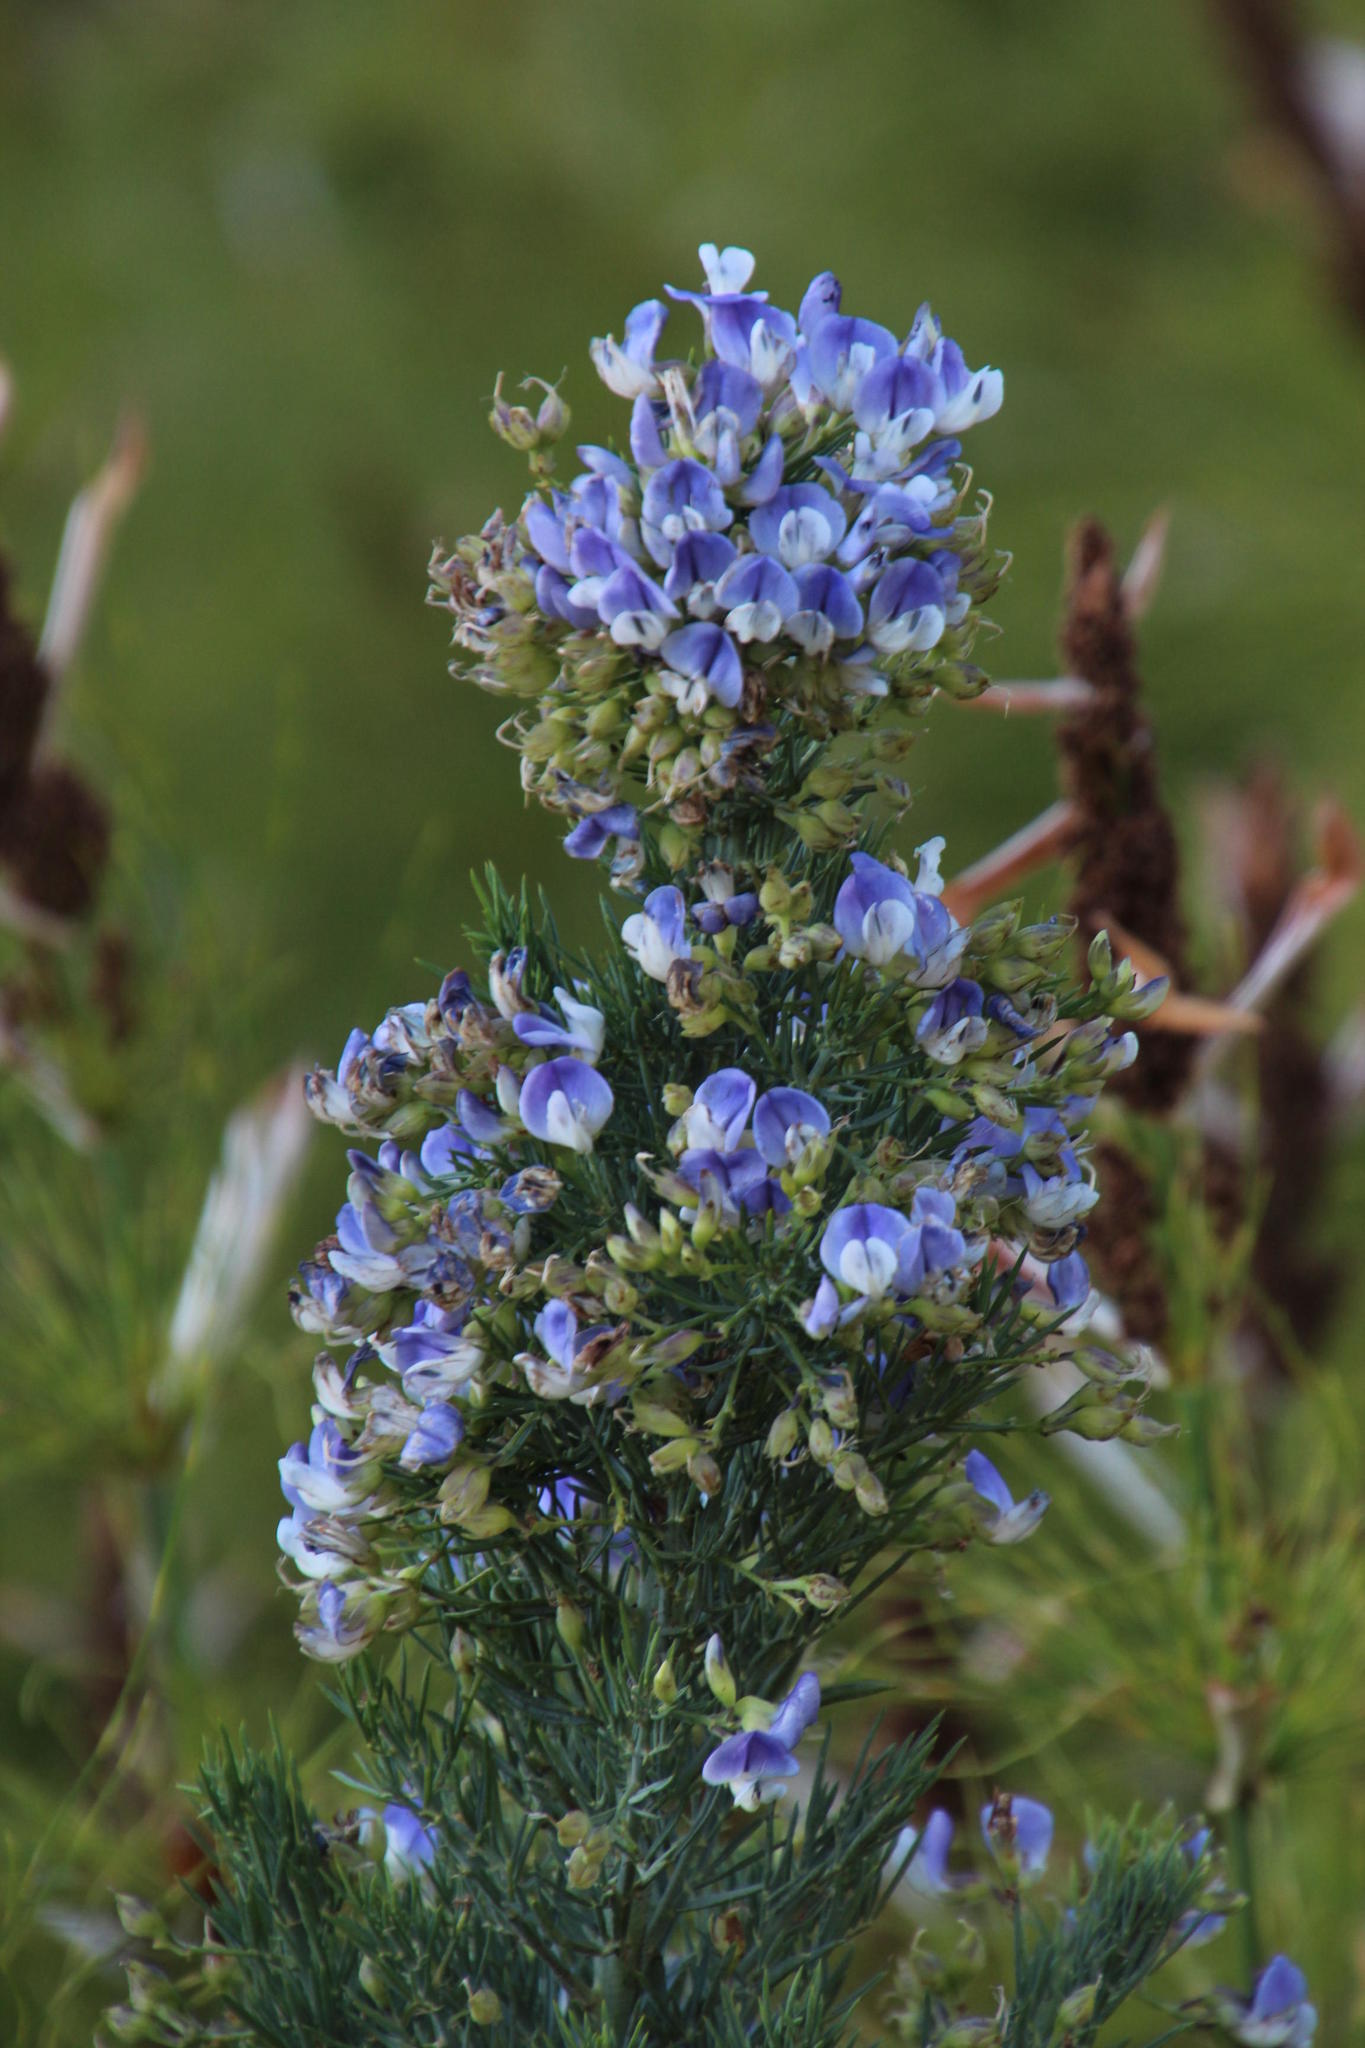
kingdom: Plantae
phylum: Tracheophyta
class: Magnoliopsida
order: Fabales
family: Fabaceae
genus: Psoralea
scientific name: Psoralea verrucosa
